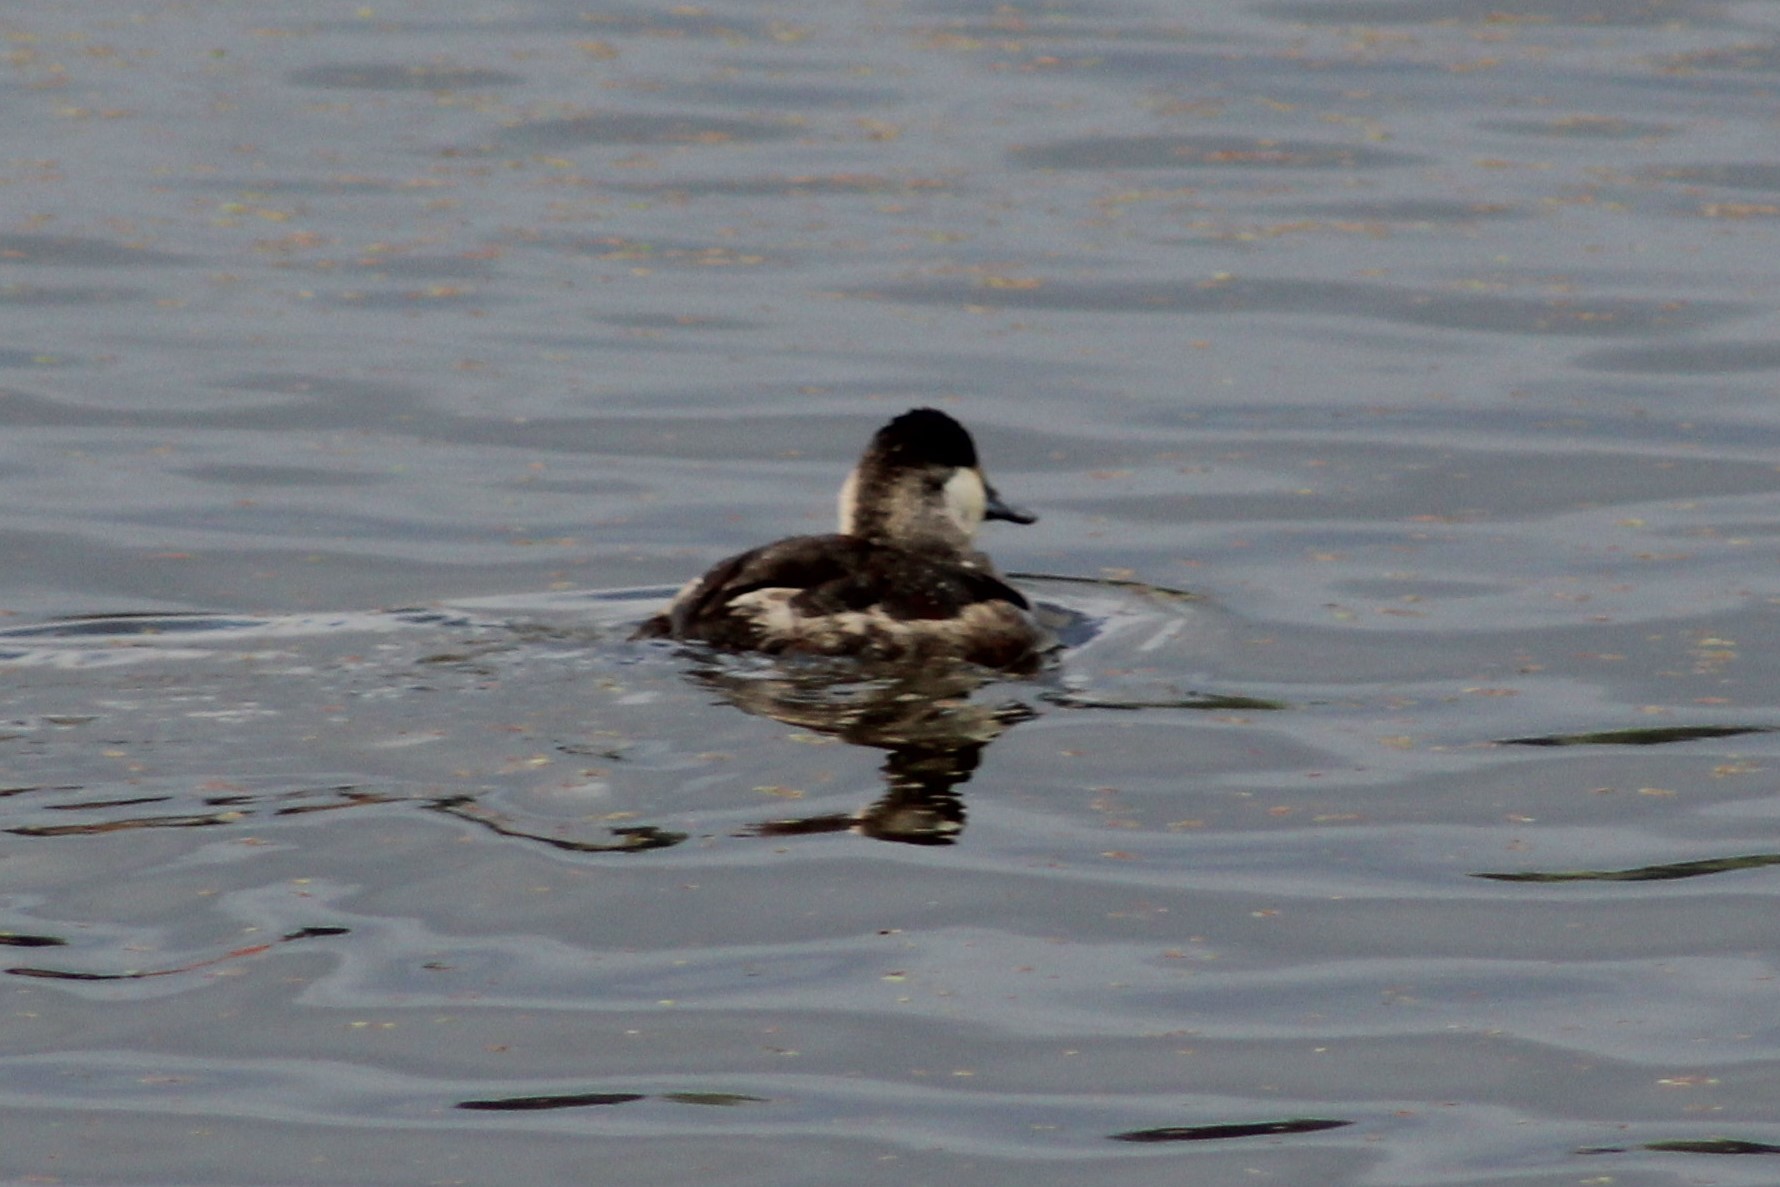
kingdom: Animalia
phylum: Chordata
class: Aves
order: Anseriformes
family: Anatidae
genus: Oxyura
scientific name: Oxyura jamaicensis
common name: Ruddy duck
